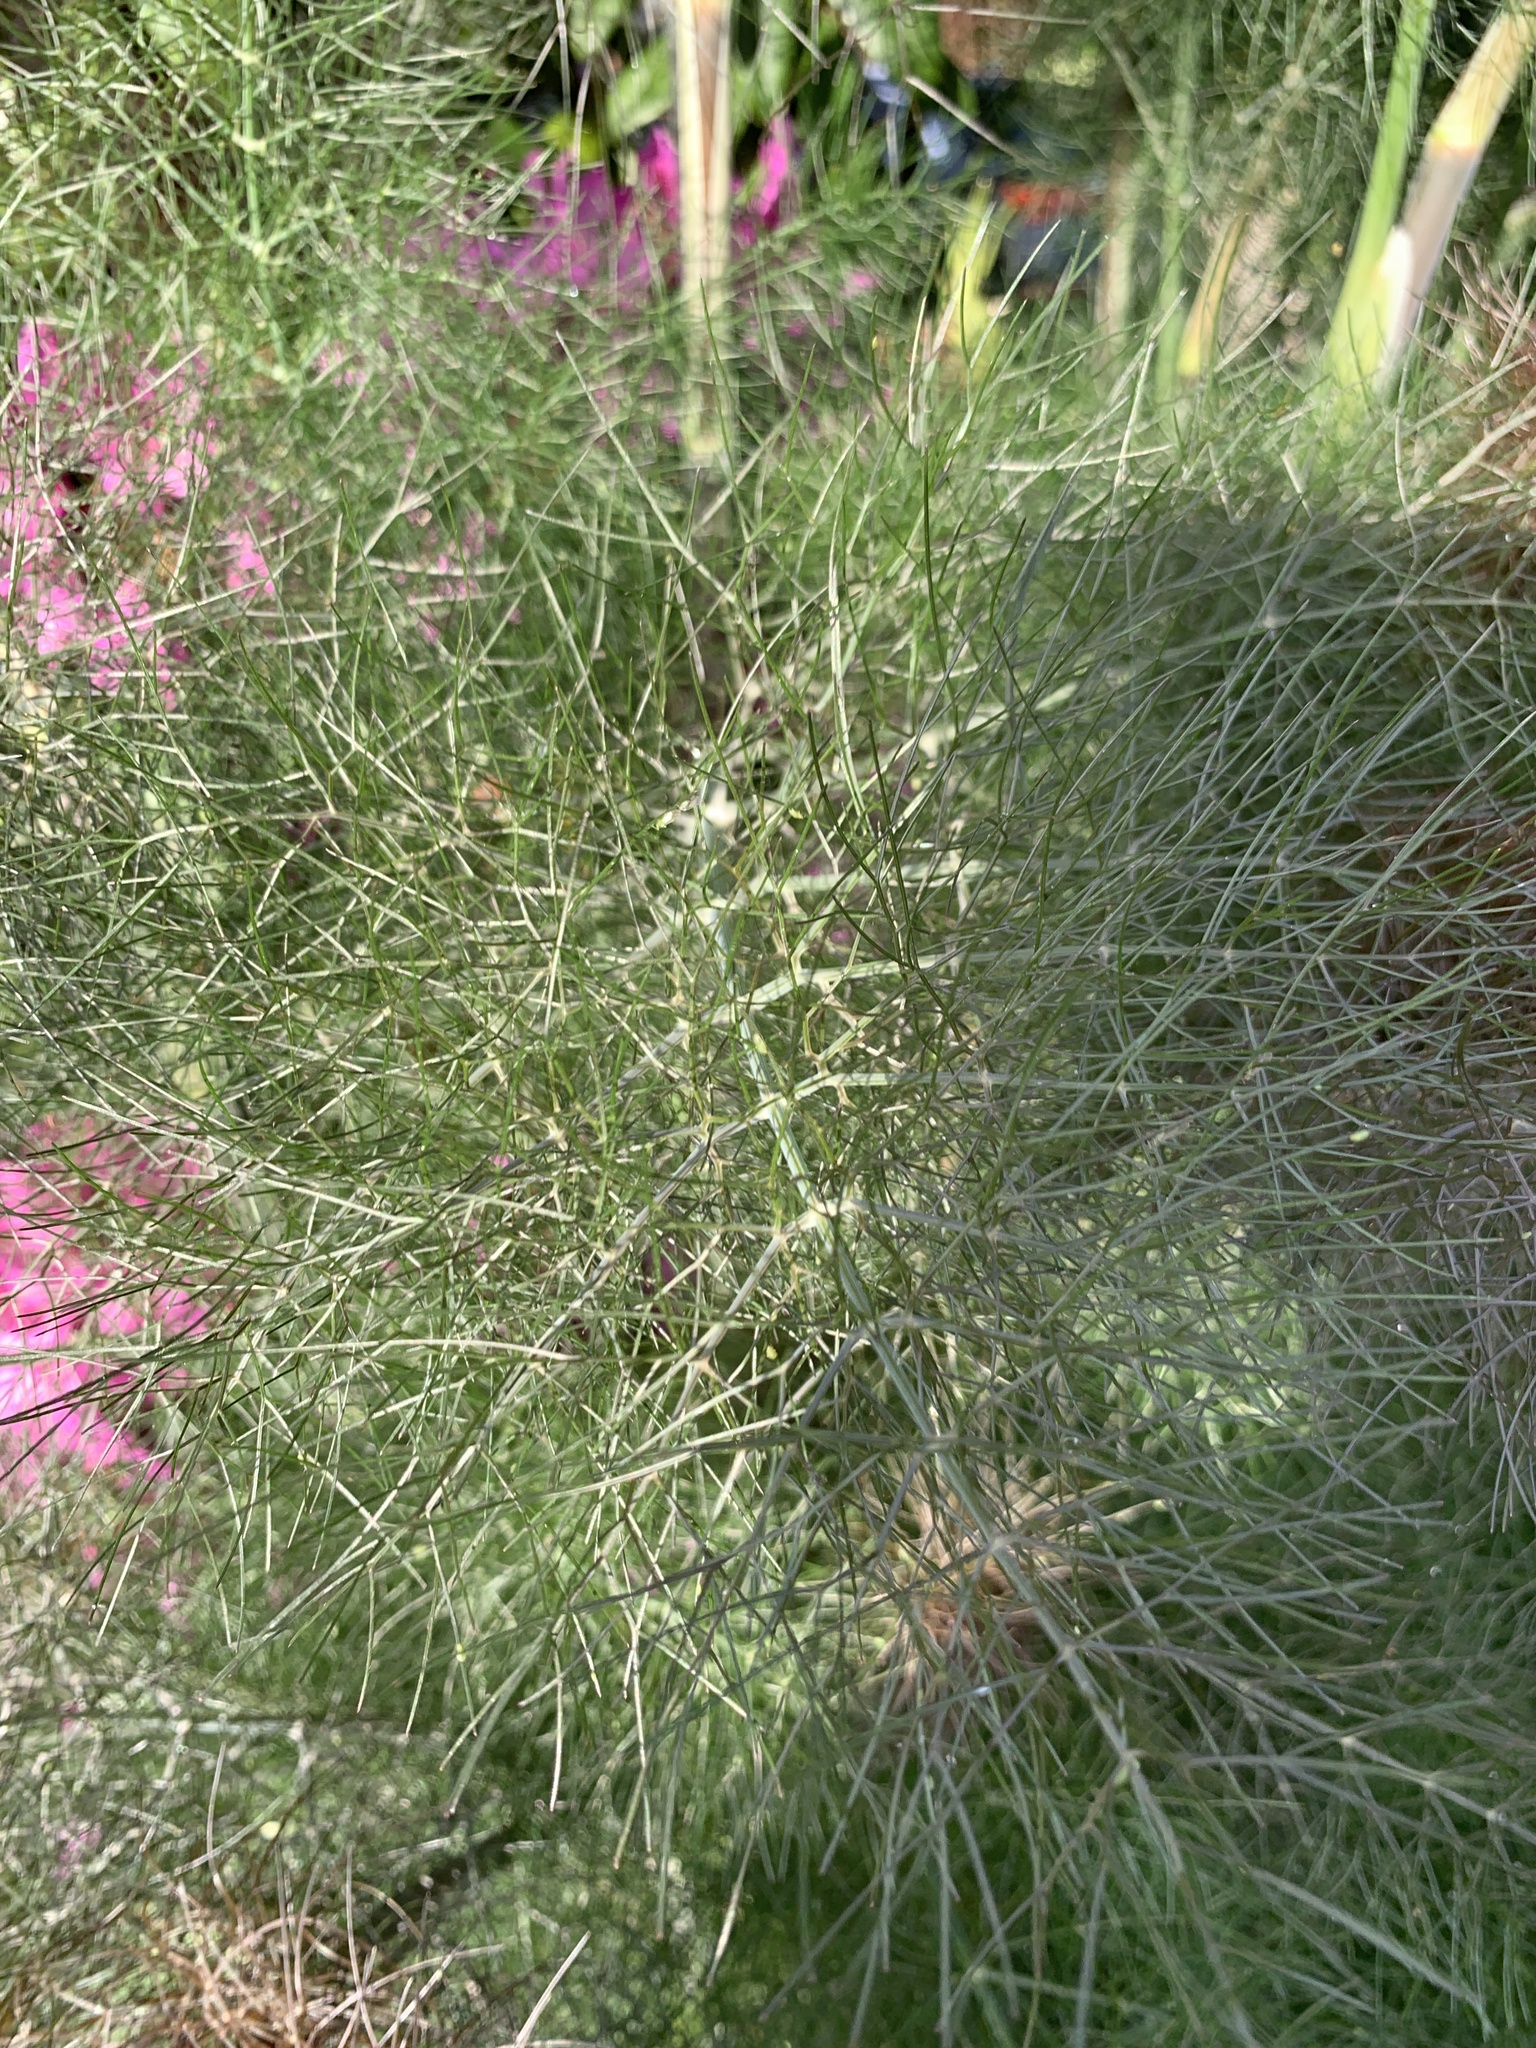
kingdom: Plantae
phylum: Tracheophyta
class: Magnoliopsida
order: Apiales
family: Apiaceae
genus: Foeniculum
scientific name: Foeniculum vulgare
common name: Fennel
